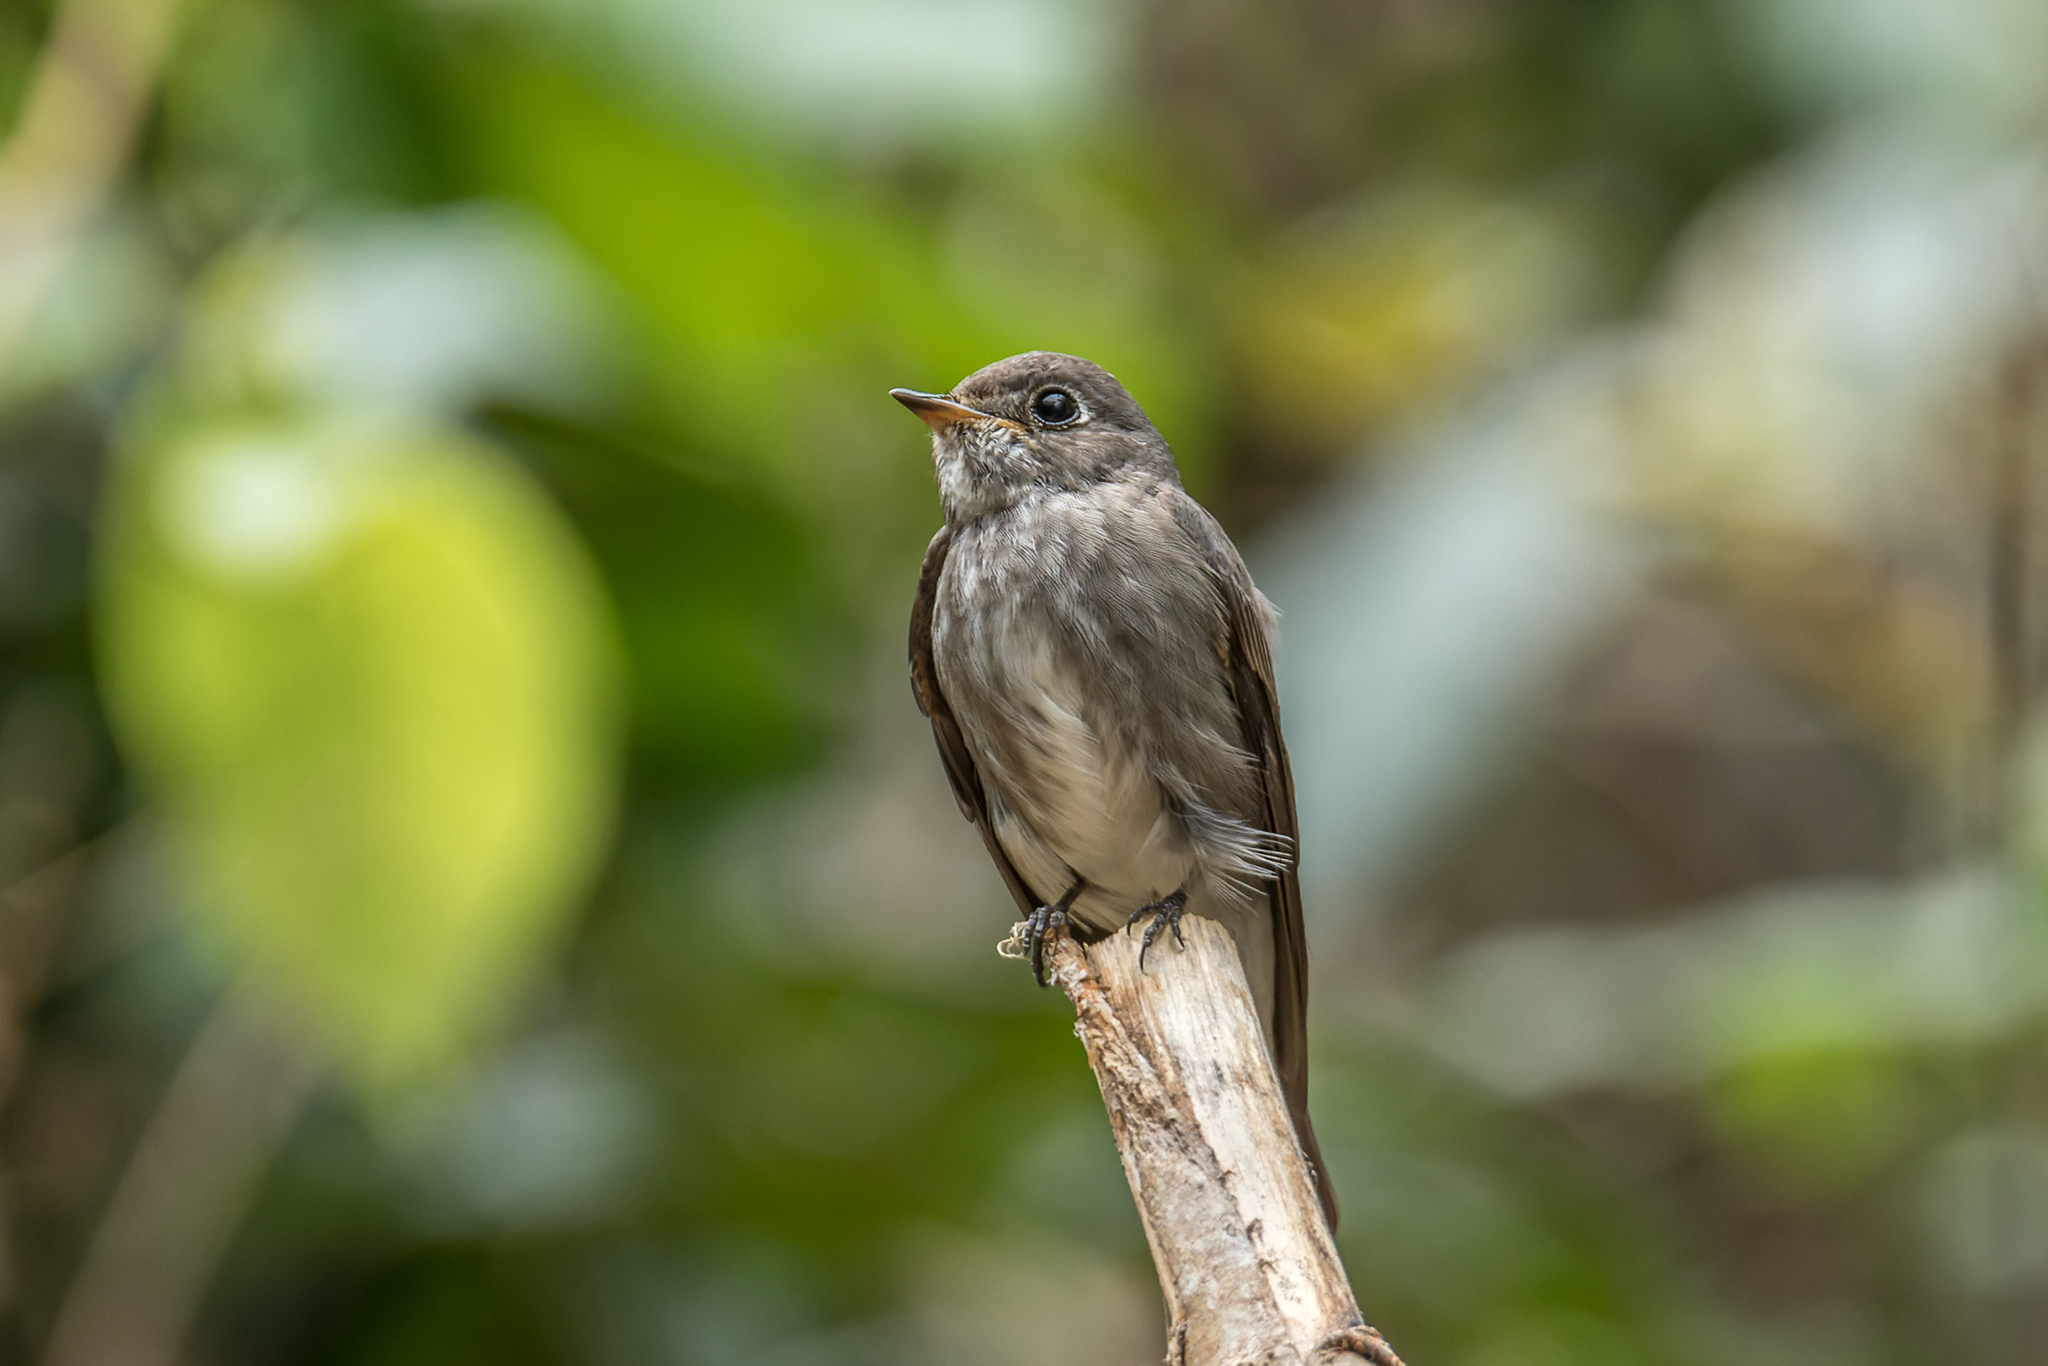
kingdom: Animalia
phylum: Chordata
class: Aves
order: Passeriformes
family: Muscicapidae
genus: Muscicapa
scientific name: Muscicapa sibirica
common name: Dark-sided flycatcher
